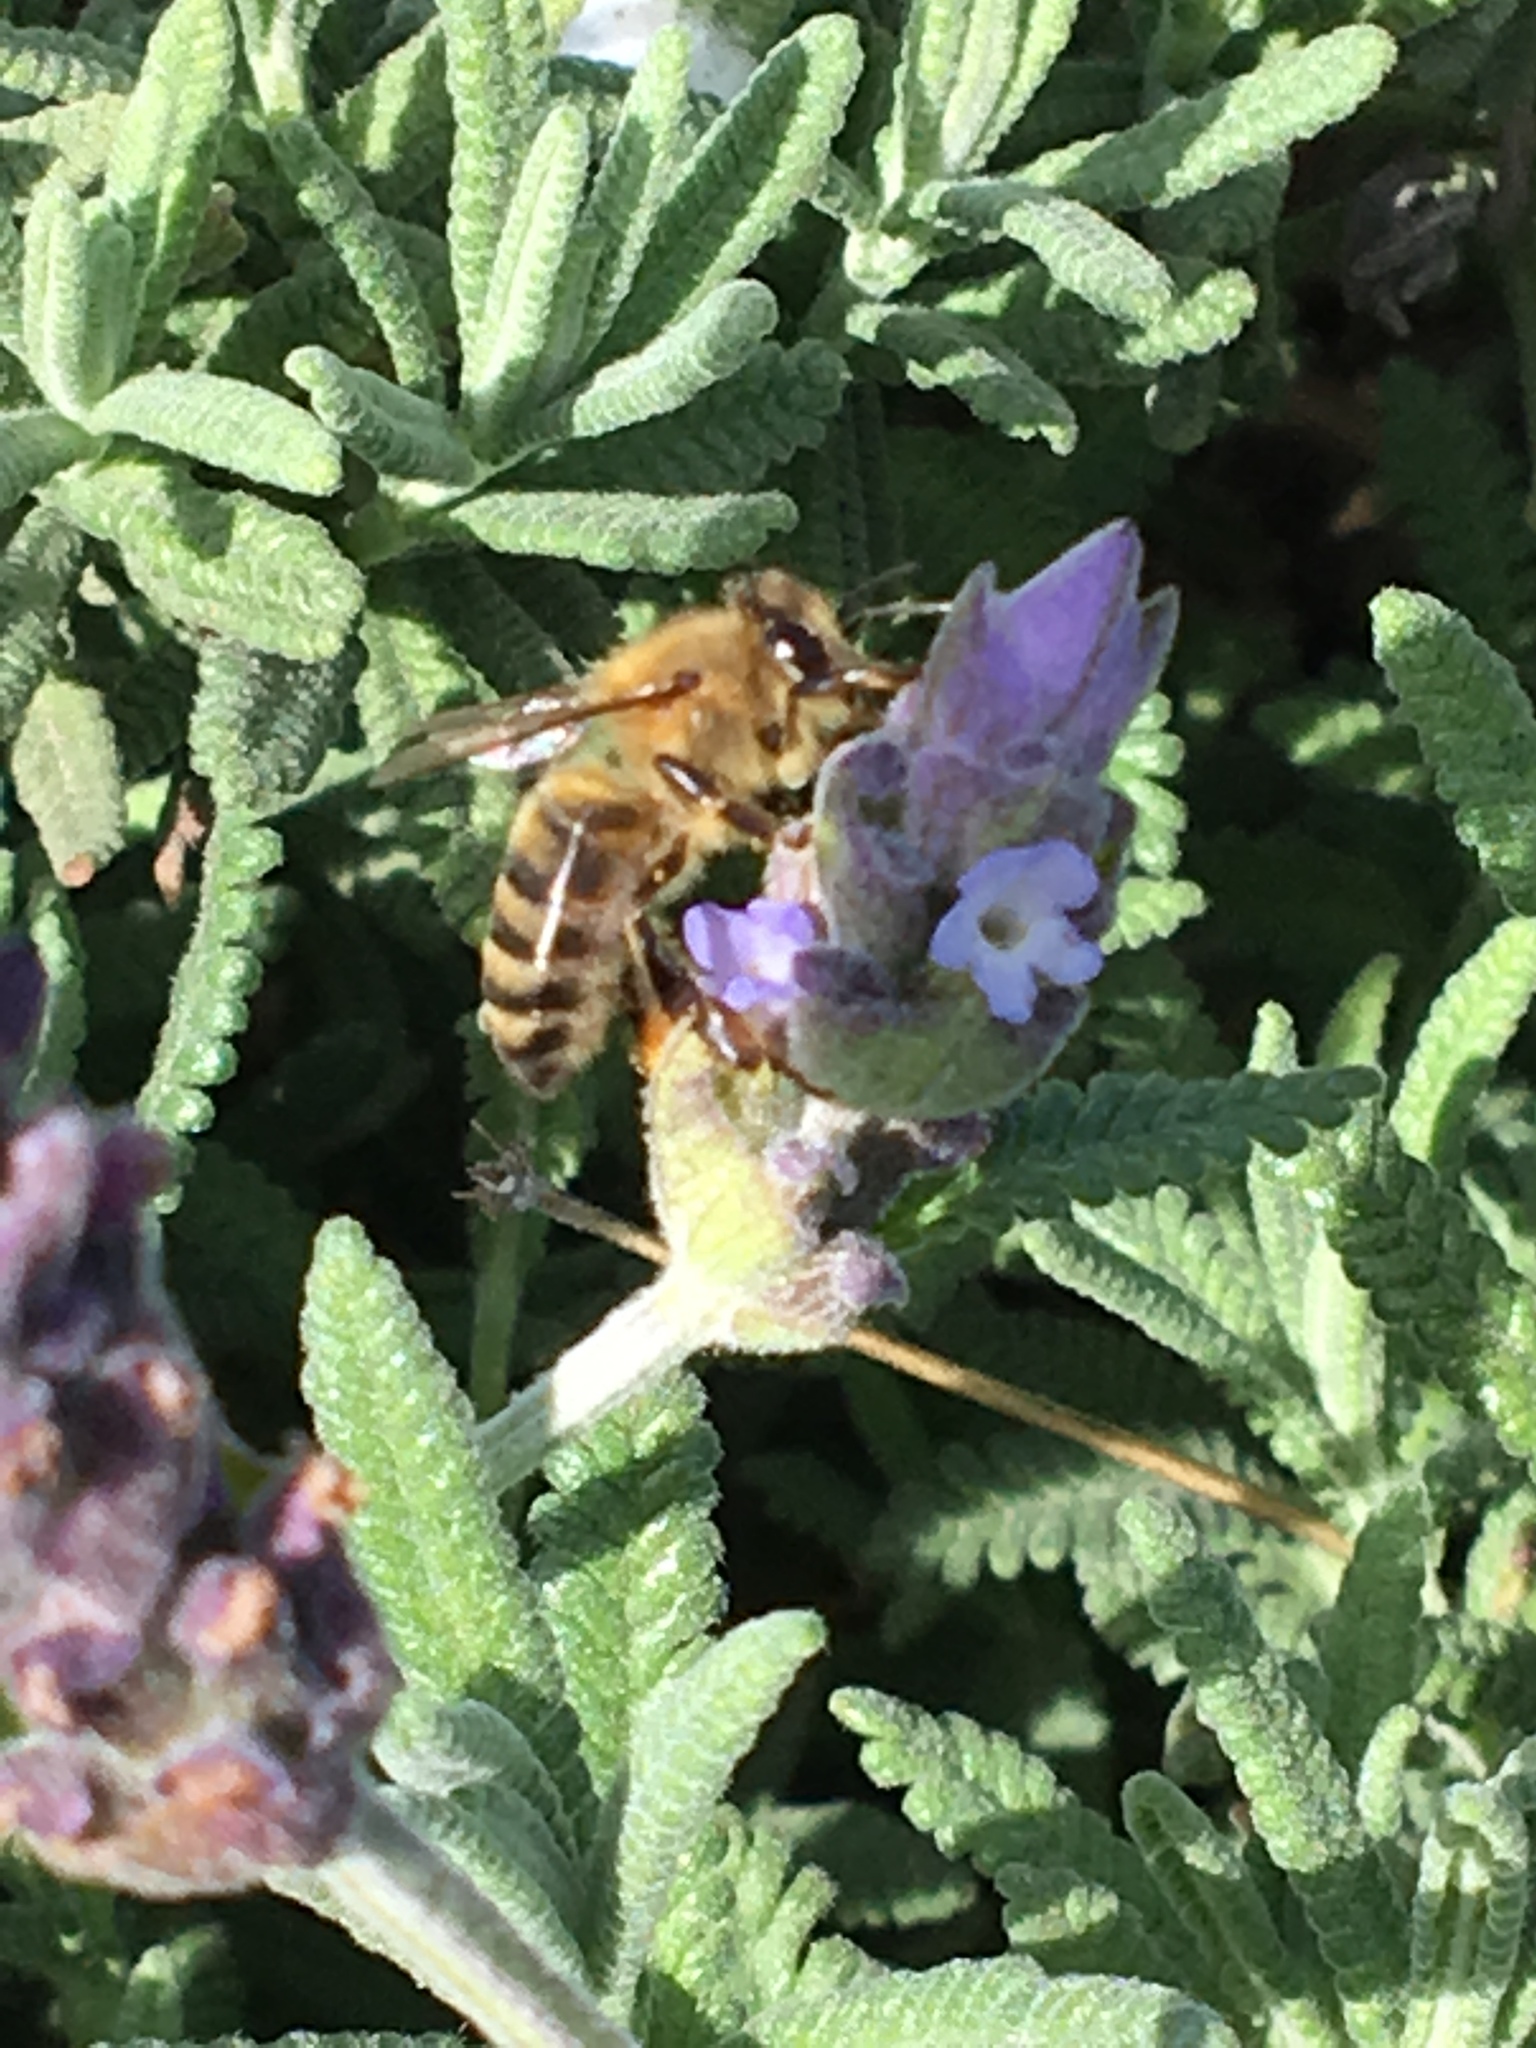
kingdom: Animalia
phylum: Arthropoda
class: Insecta
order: Hymenoptera
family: Apidae
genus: Apis
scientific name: Apis mellifera
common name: Honey bee
